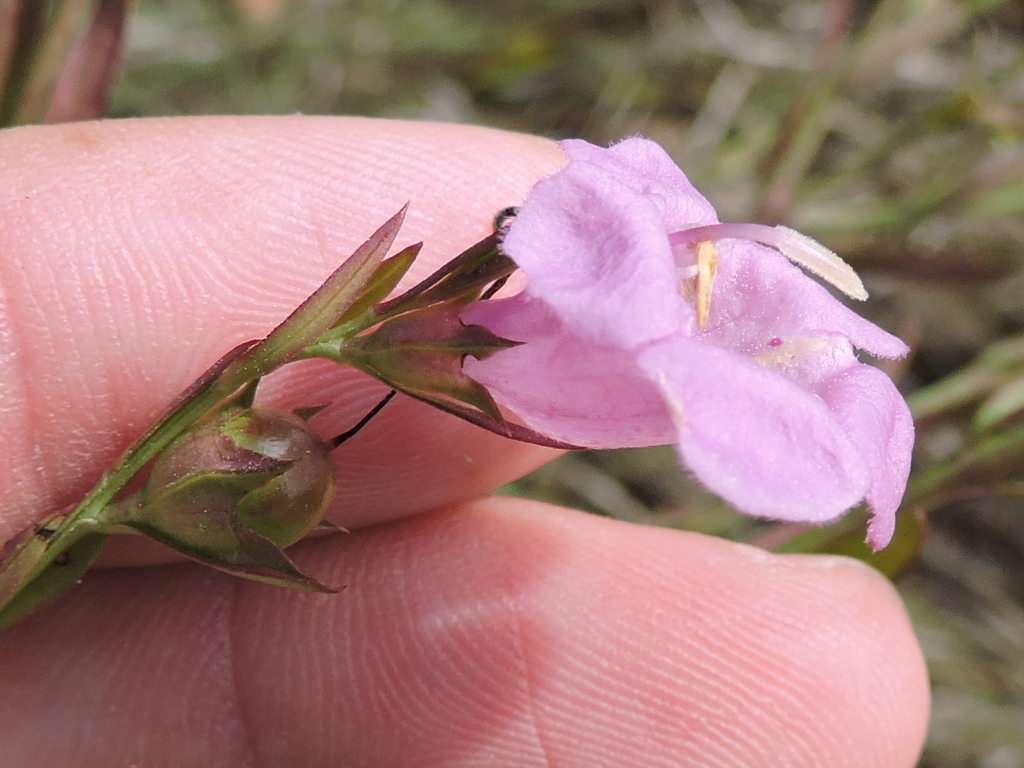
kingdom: Plantae
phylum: Tracheophyta
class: Magnoliopsida
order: Lamiales
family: Orobanchaceae
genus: Agalinis
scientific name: Agalinis heterophylla
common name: Prairie agalinis
